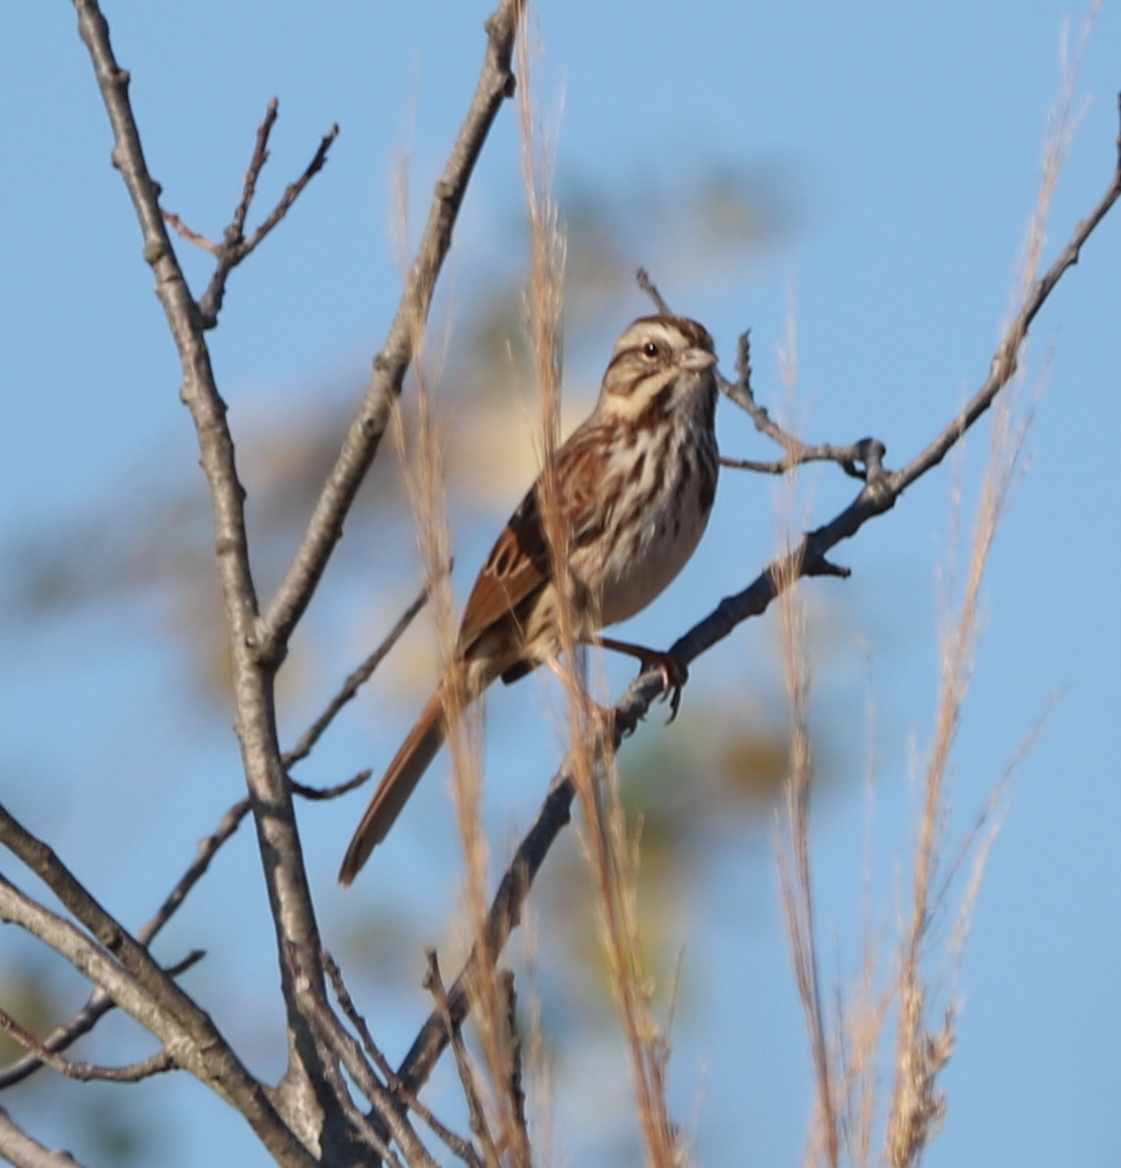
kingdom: Animalia
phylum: Chordata
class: Aves
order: Passeriformes
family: Passerellidae
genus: Melospiza
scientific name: Melospiza melodia
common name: Song sparrow
